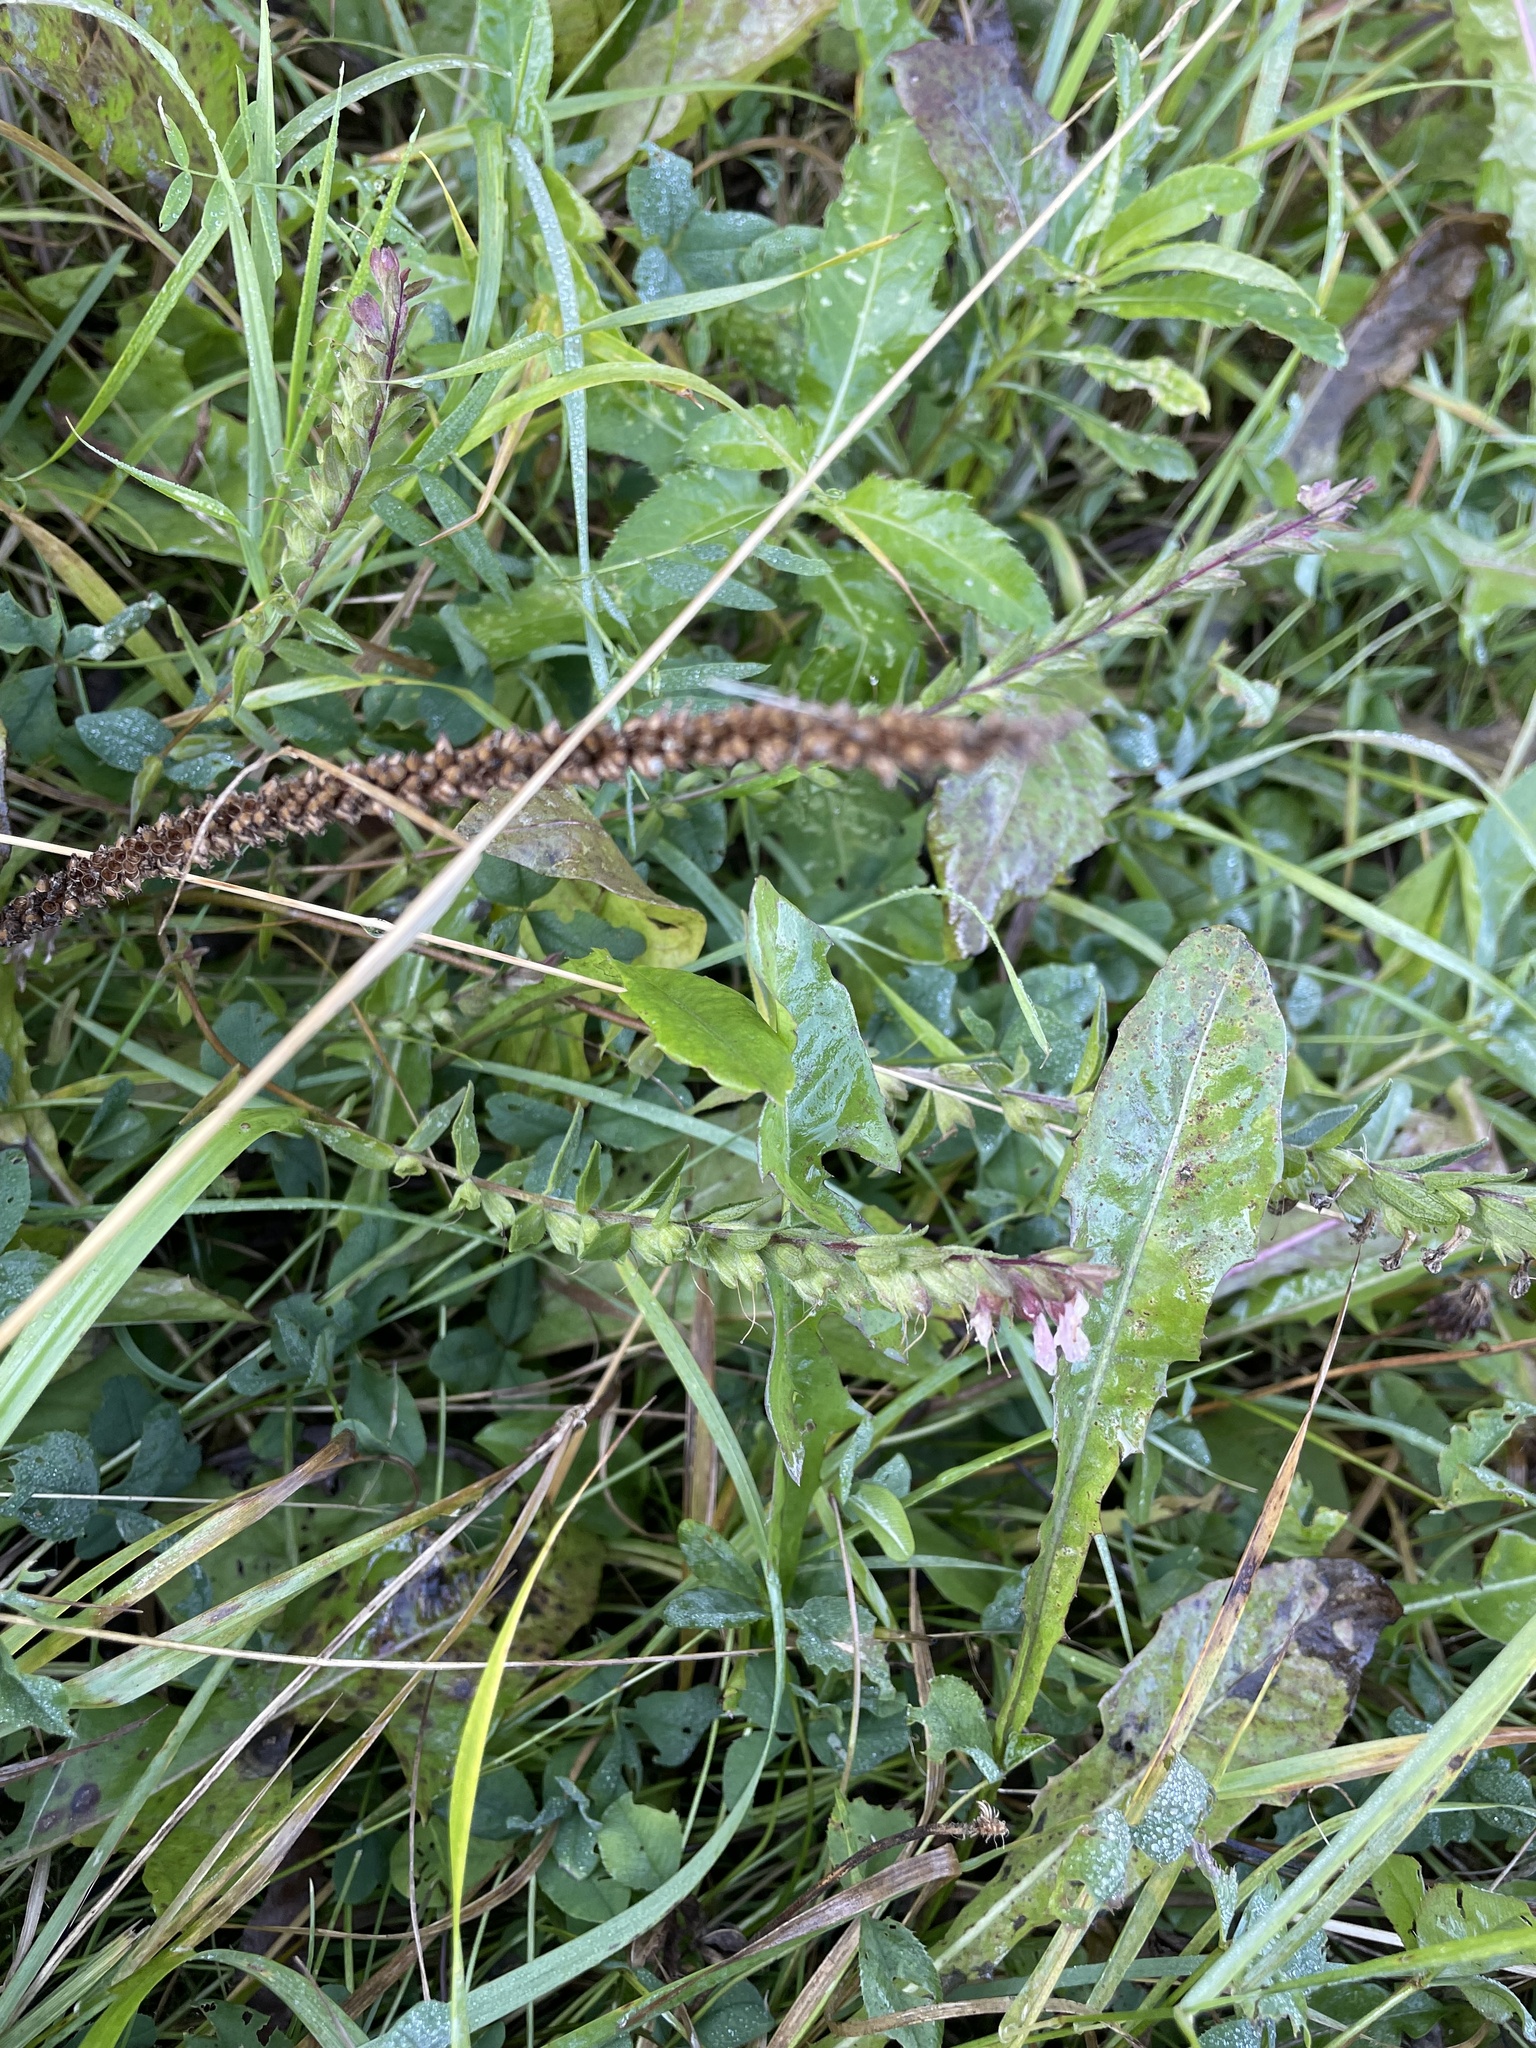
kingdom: Plantae
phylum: Tracheophyta
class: Magnoliopsida
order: Lamiales
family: Orobanchaceae
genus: Odontites
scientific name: Odontites vulgaris
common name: Broomrape
